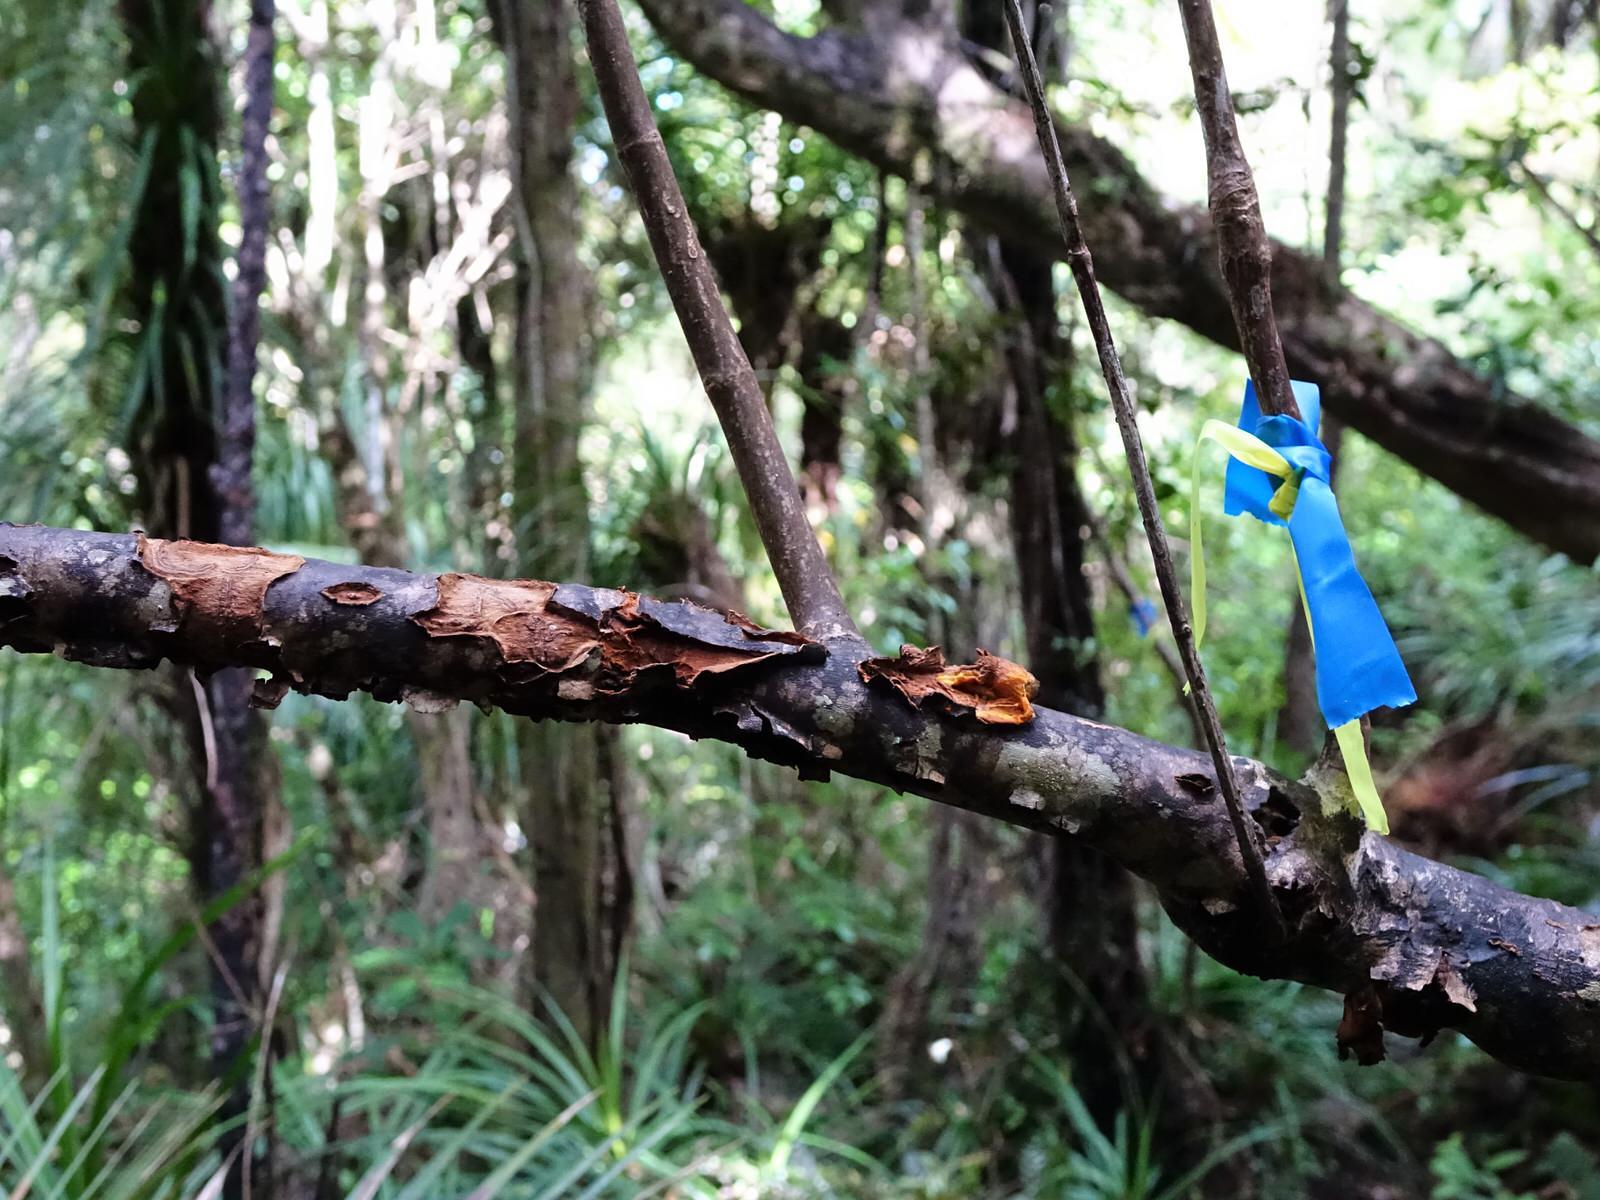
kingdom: Plantae
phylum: Tracheophyta
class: Magnoliopsida
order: Gentianales
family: Rubiaceae
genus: Coprosma
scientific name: Coprosma autumnalis
